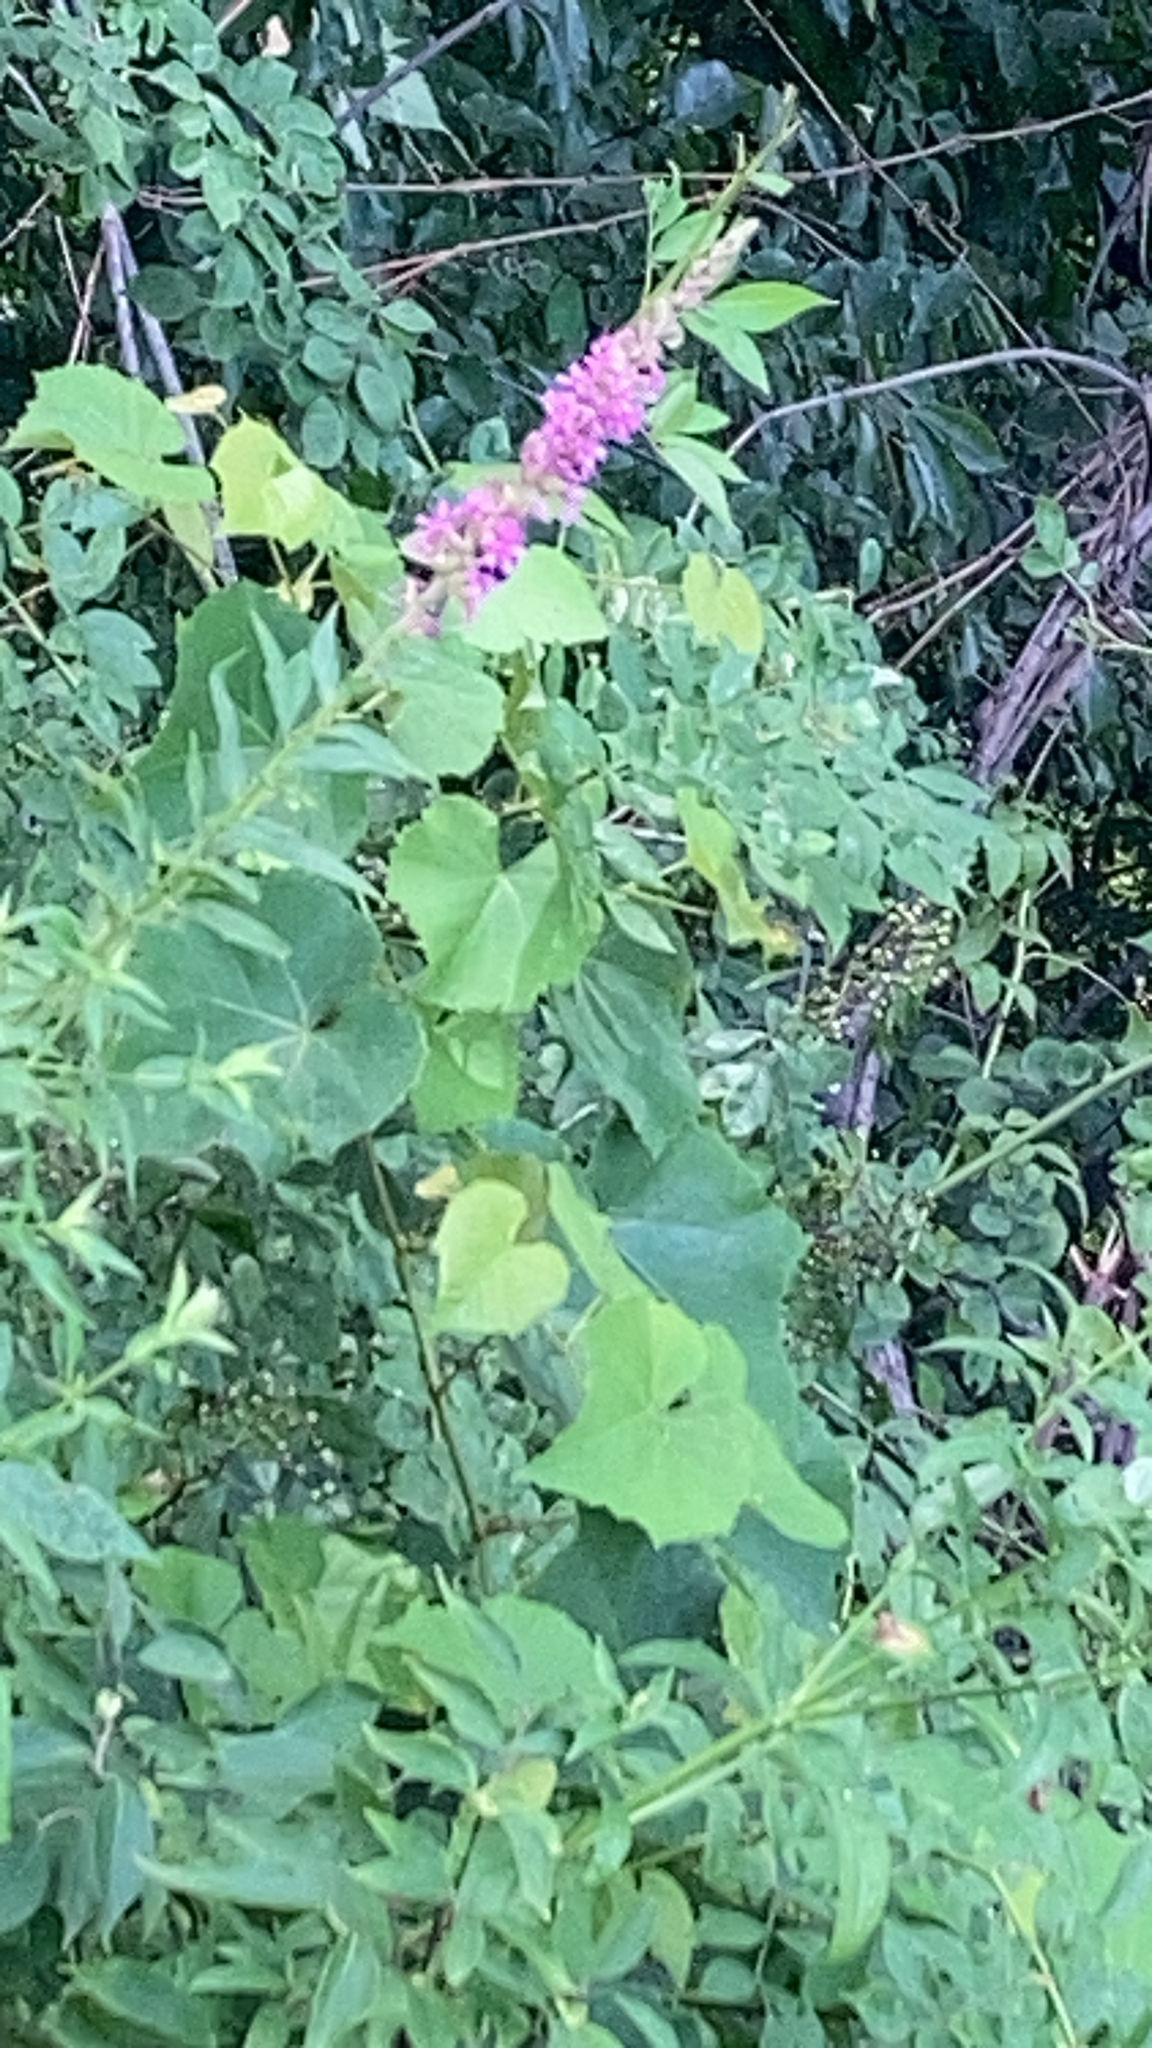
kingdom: Plantae
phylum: Tracheophyta
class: Magnoliopsida
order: Myrtales
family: Lythraceae
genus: Lythrum
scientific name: Lythrum salicaria
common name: Purple loosestrife
